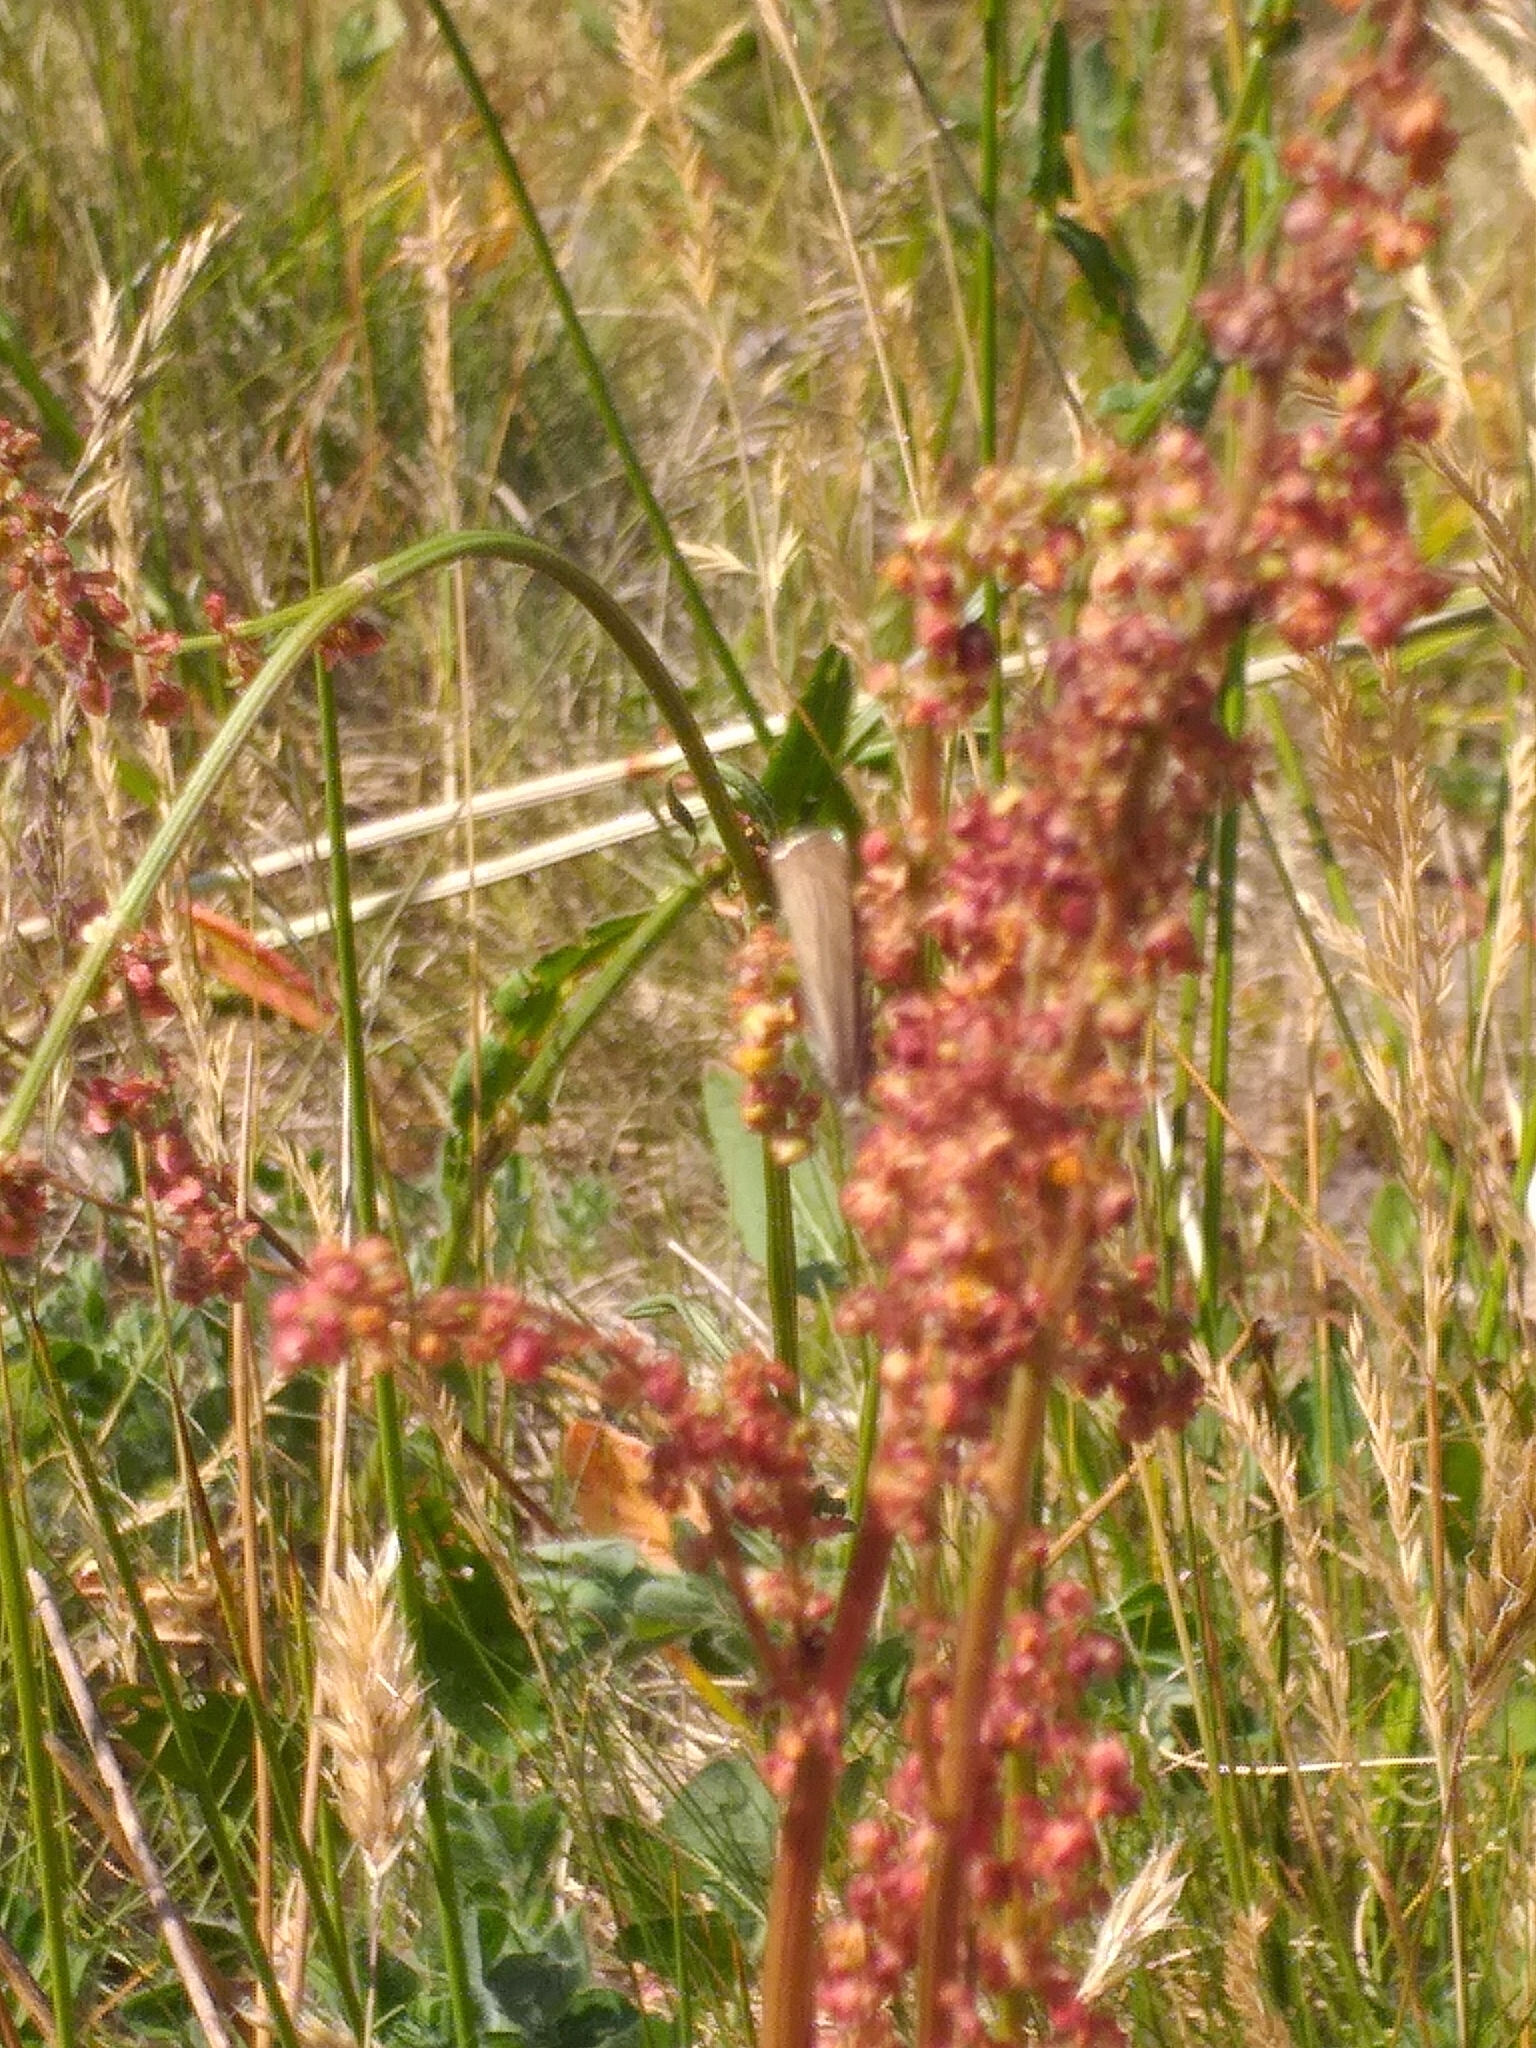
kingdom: Animalia
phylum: Arthropoda
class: Insecta
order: Lepidoptera
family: Crambidae
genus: Chrysoteuchia
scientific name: Chrysoteuchia culmella
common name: Garden grass-veneer
